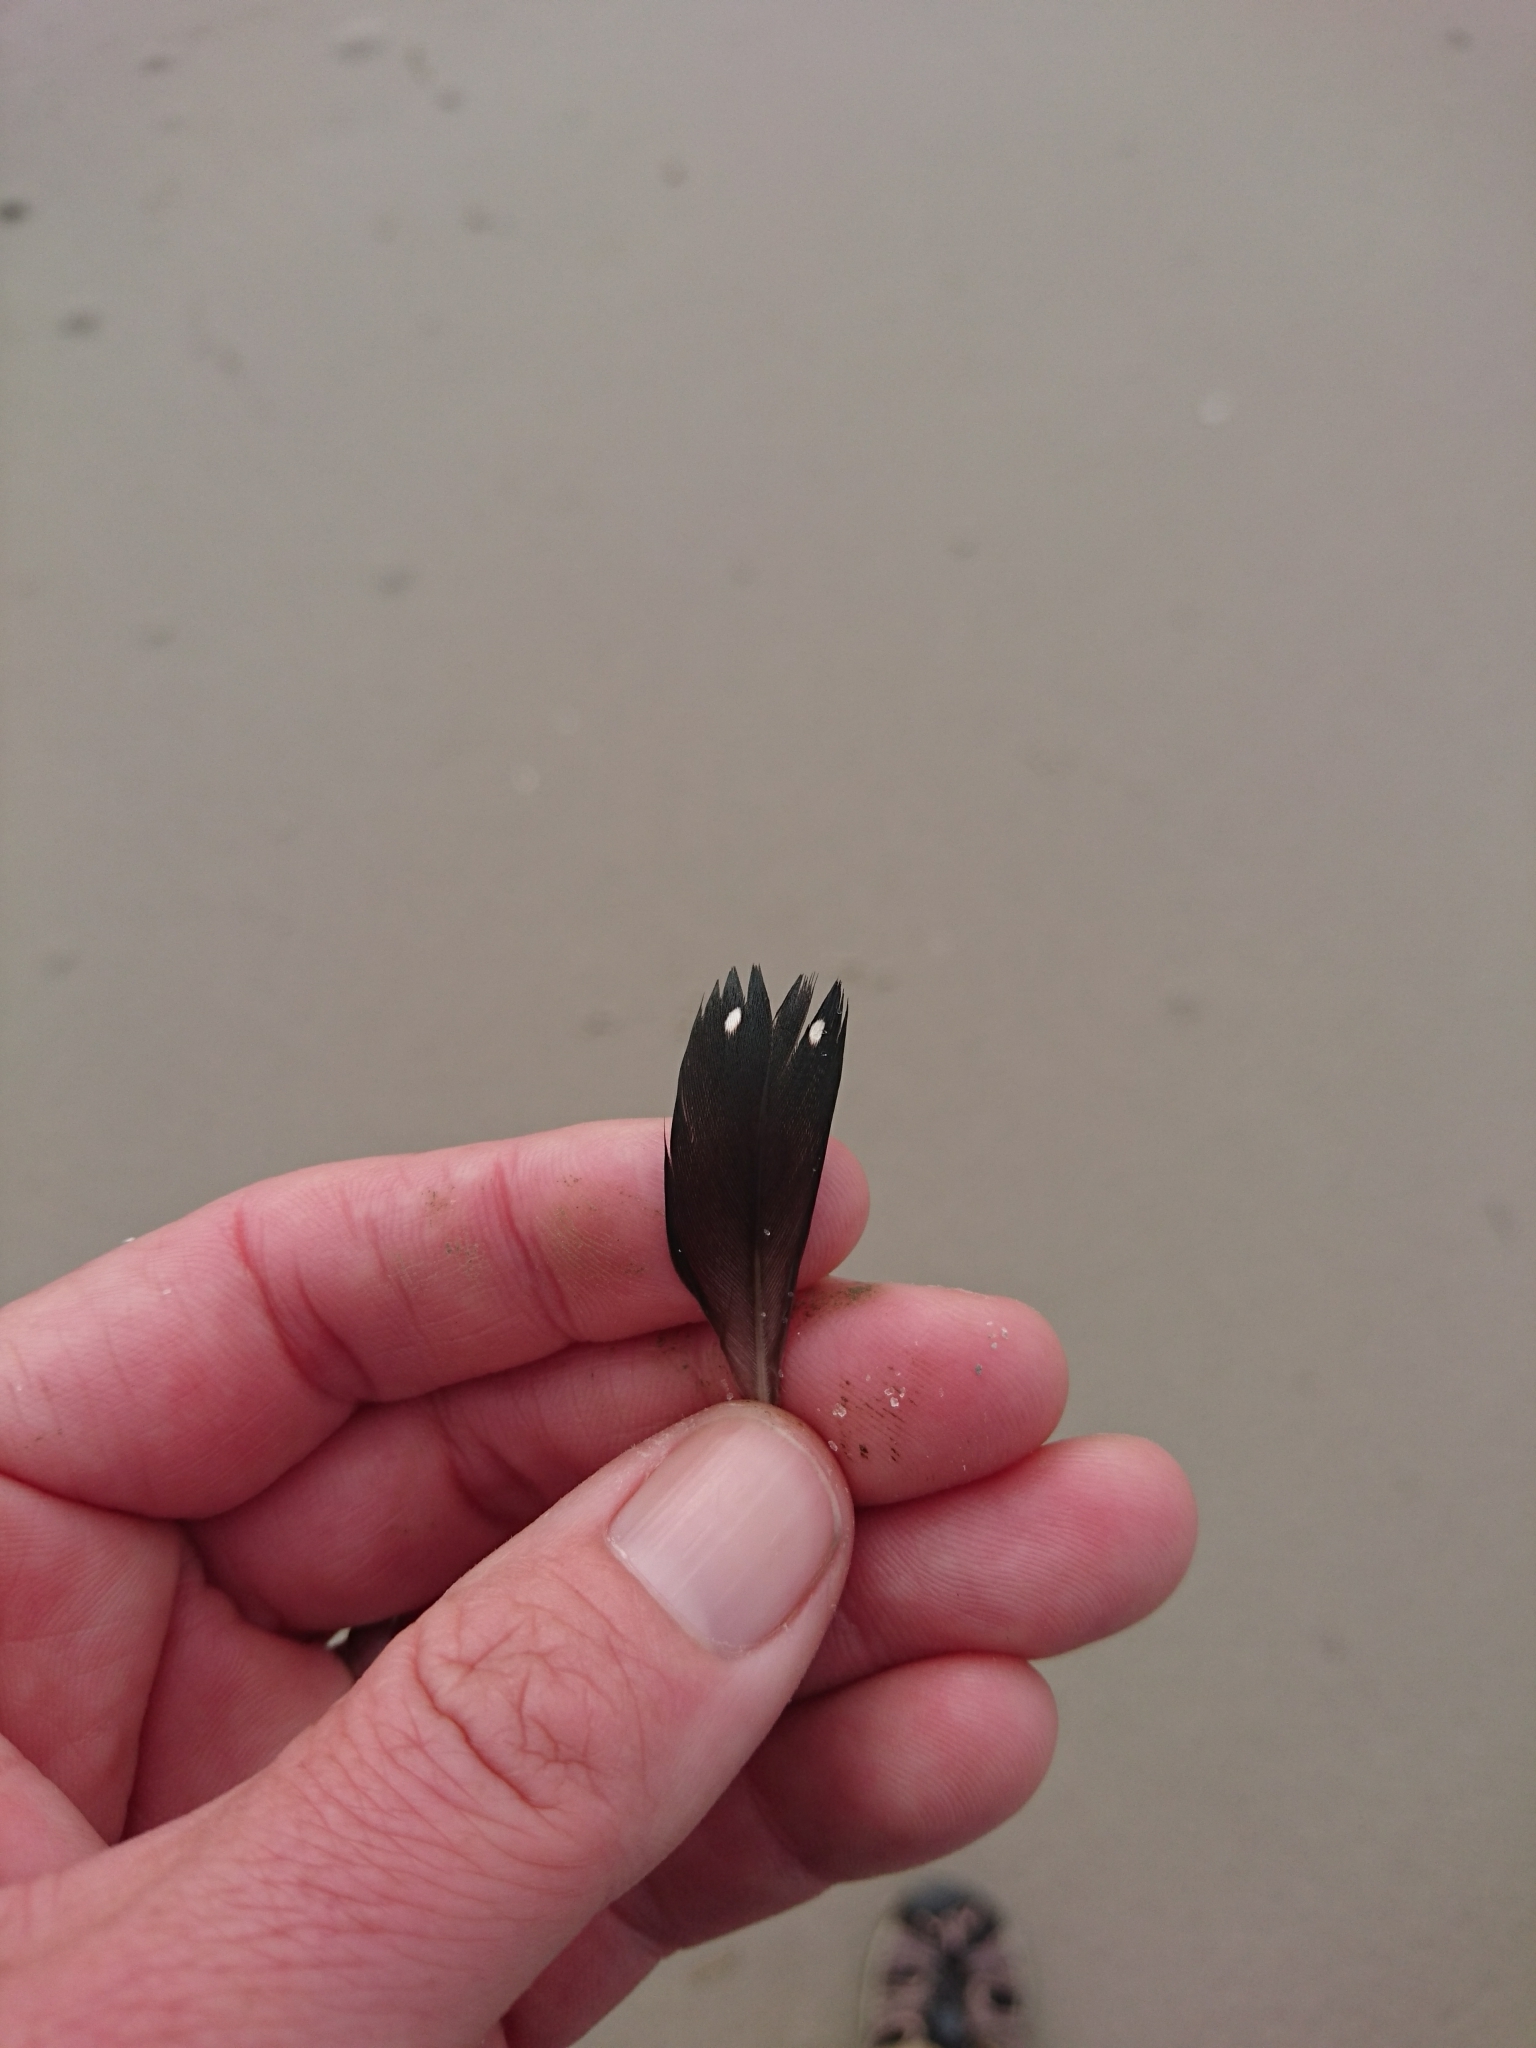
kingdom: Animalia
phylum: Chordata
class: Aves
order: Gaviiformes
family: Gaviidae
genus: Gavia
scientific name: Gavia immer
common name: Common loon
